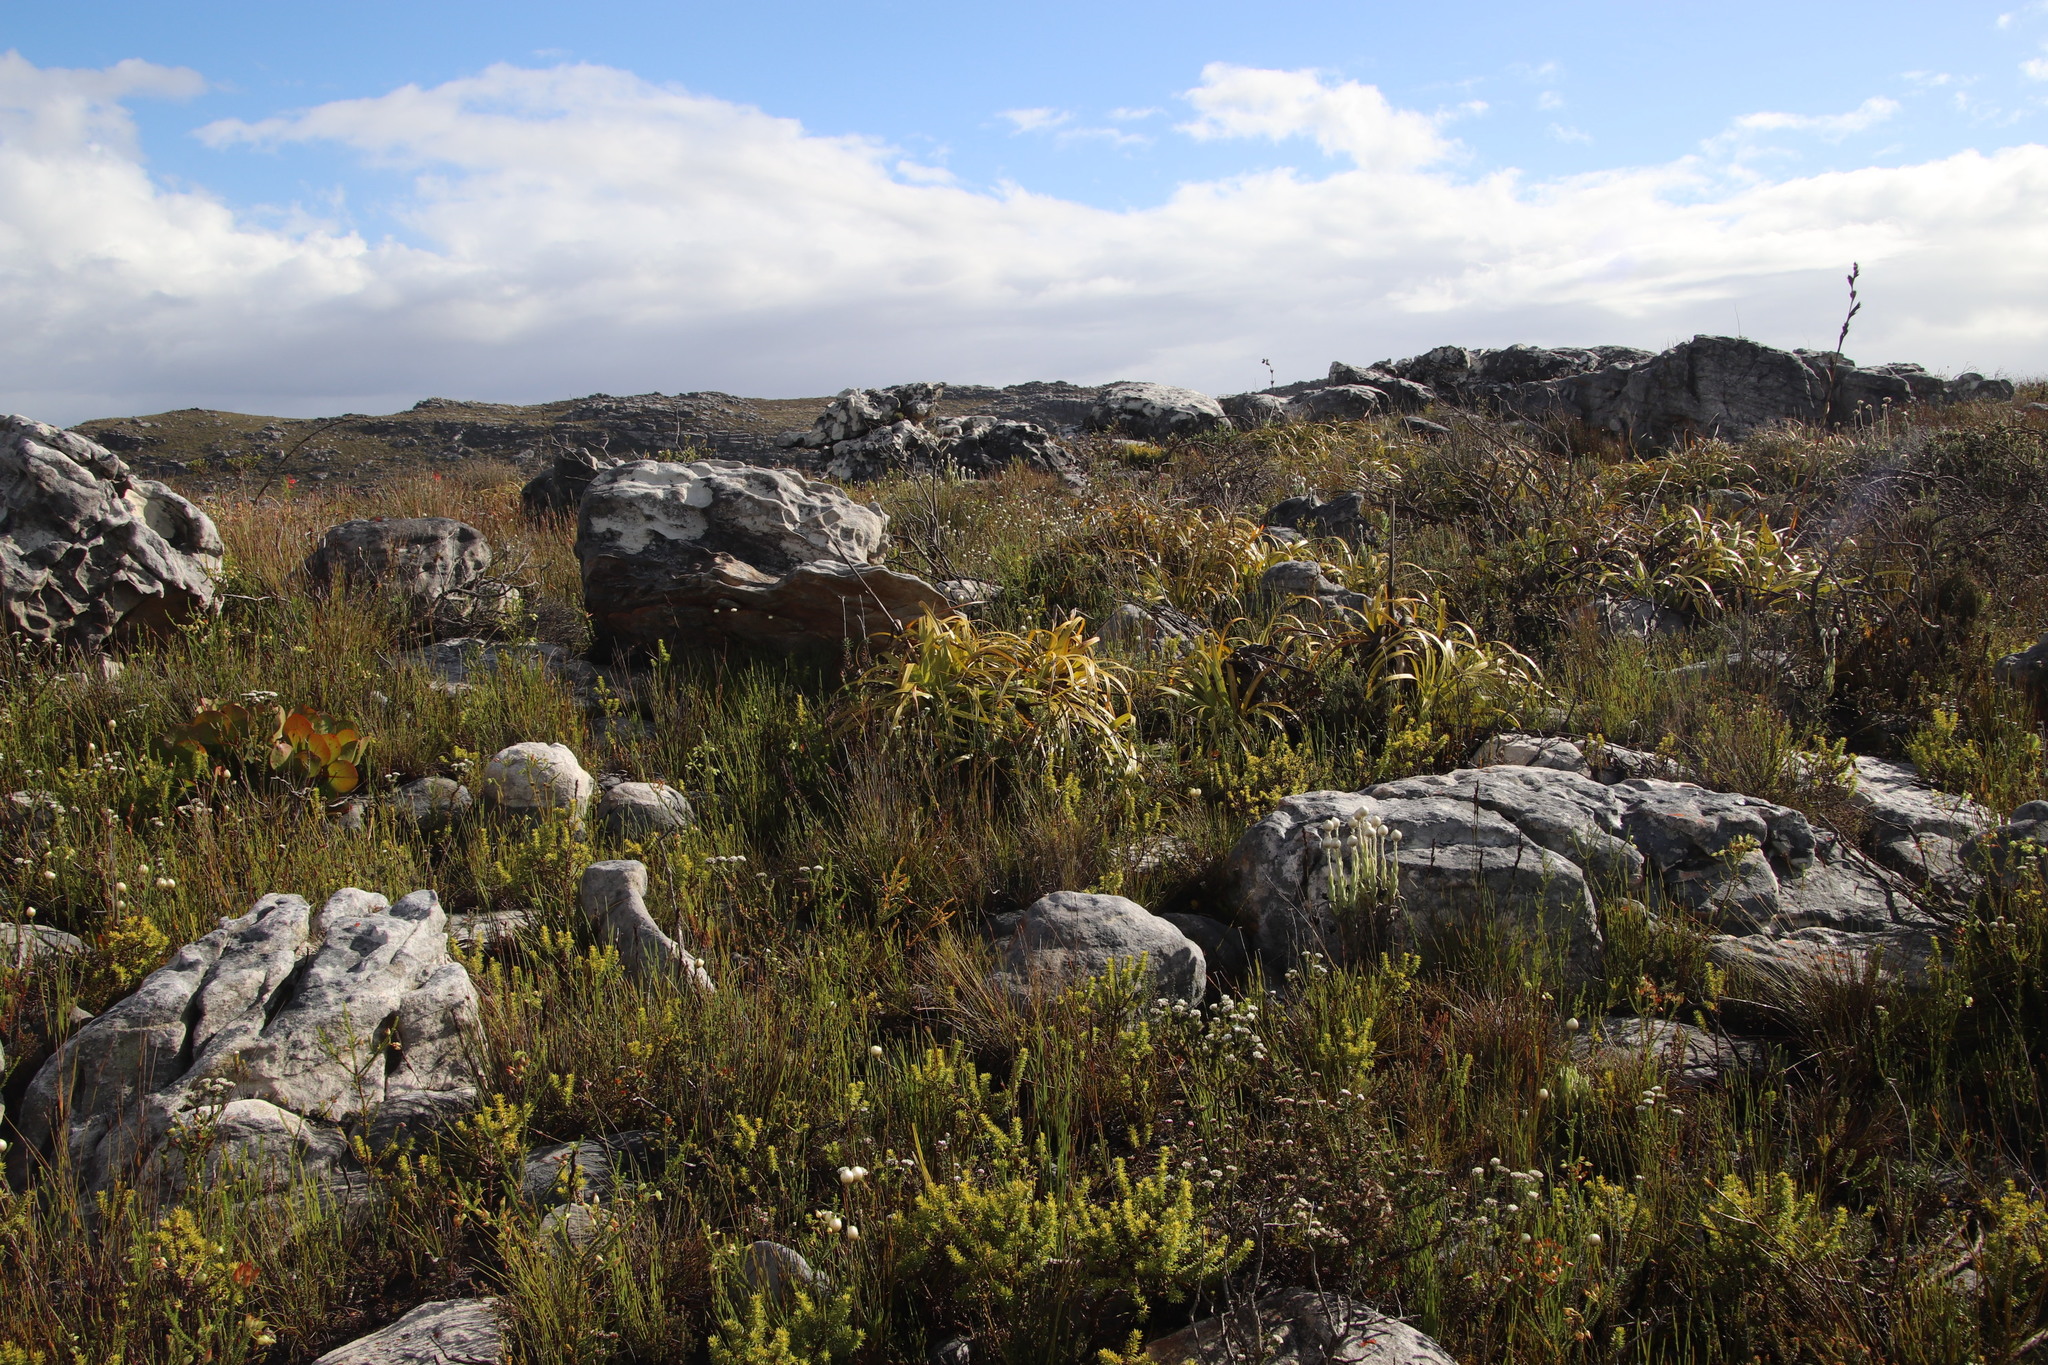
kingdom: Plantae
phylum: Tracheophyta
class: Liliopsida
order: Poales
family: Cyperaceae
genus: Tetraria
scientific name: Tetraria thermalis
